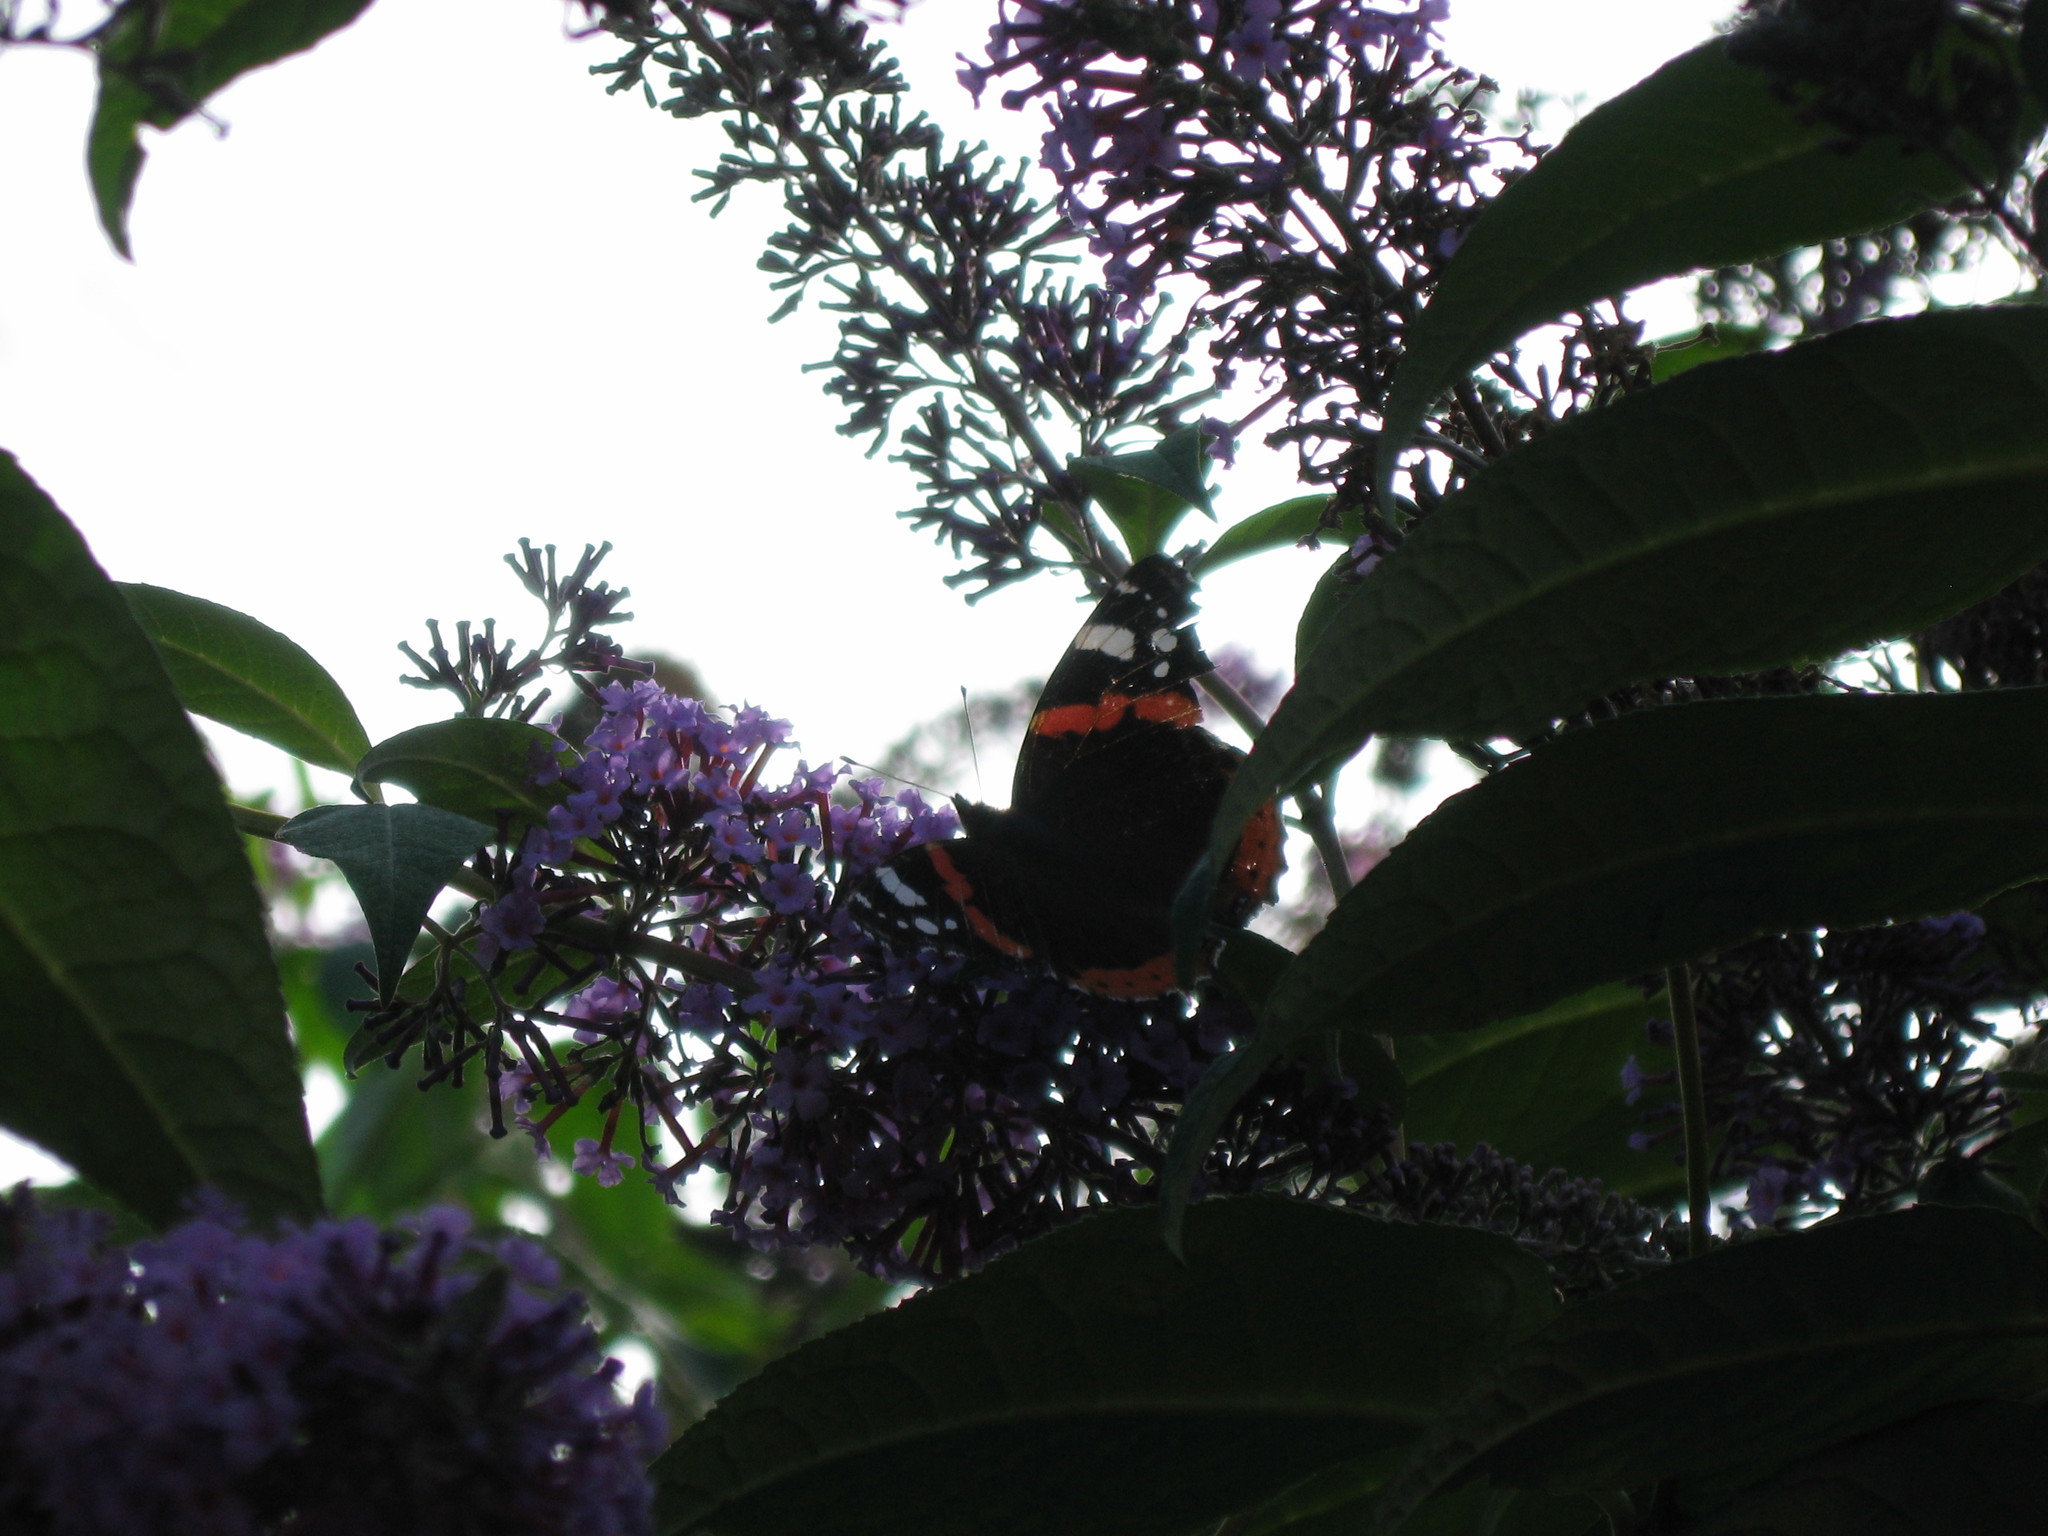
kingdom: Animalia
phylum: Arthropoda
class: Insecta
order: Lepidoptera
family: Nymphalidae
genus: Vanessa
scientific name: Vanessa atalanta
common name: Red admiral
